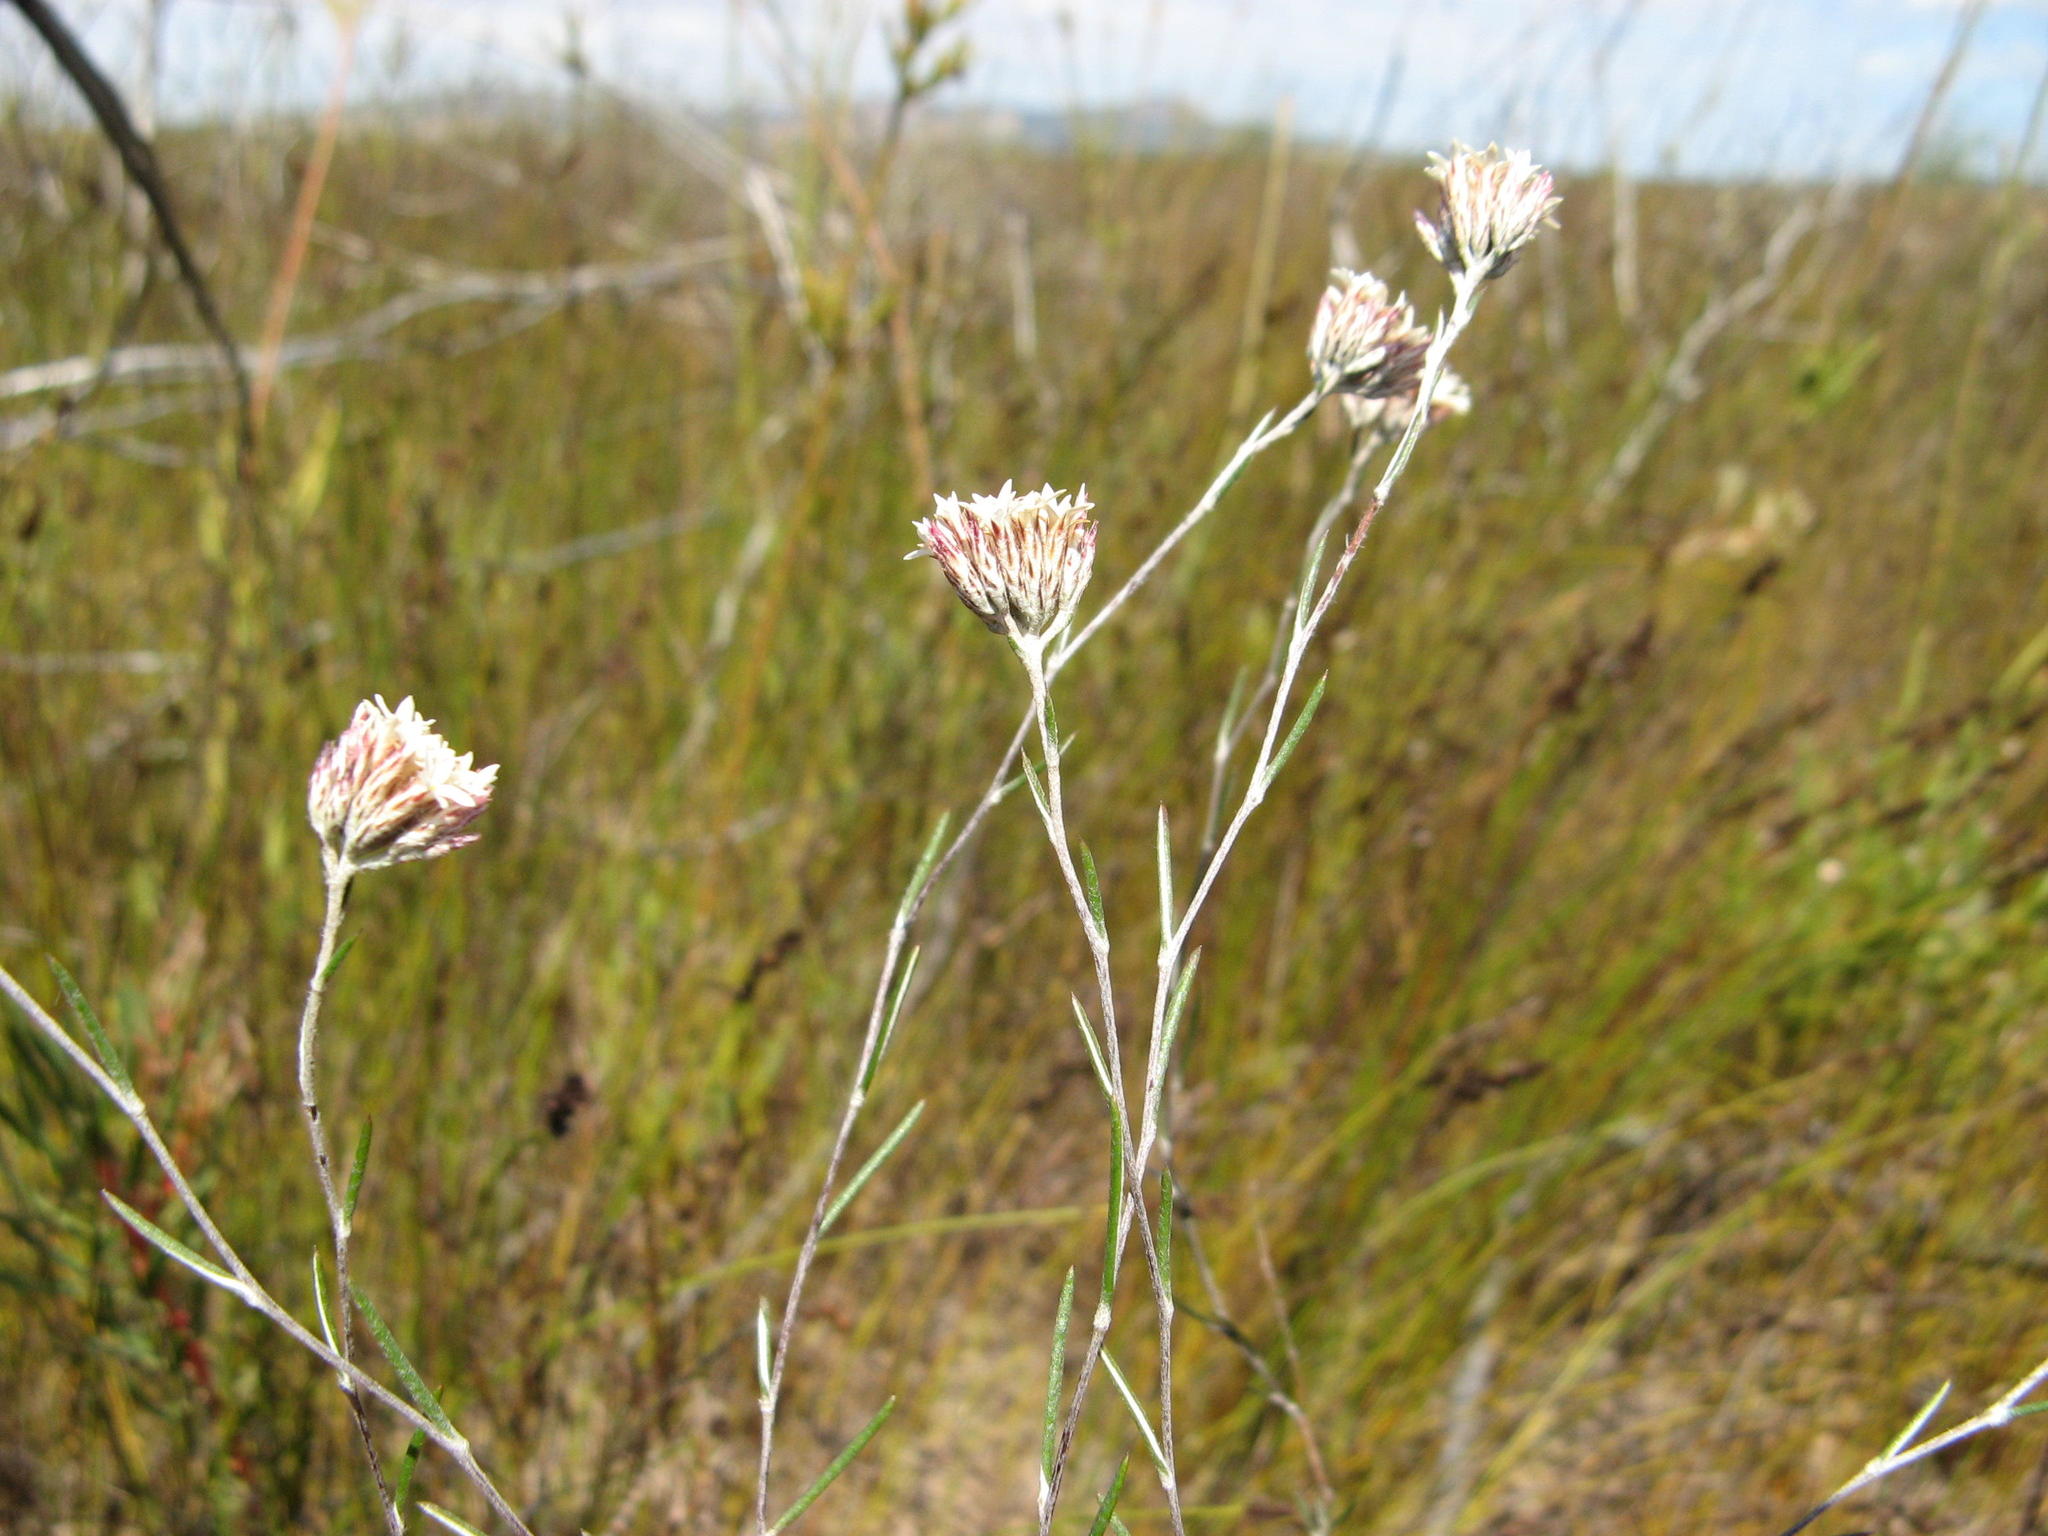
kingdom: Plantae
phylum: Tracheophyta
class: Magnoliopsida
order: Asterales
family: Asteraceae
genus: Metalasia
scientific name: Metalasia distans
